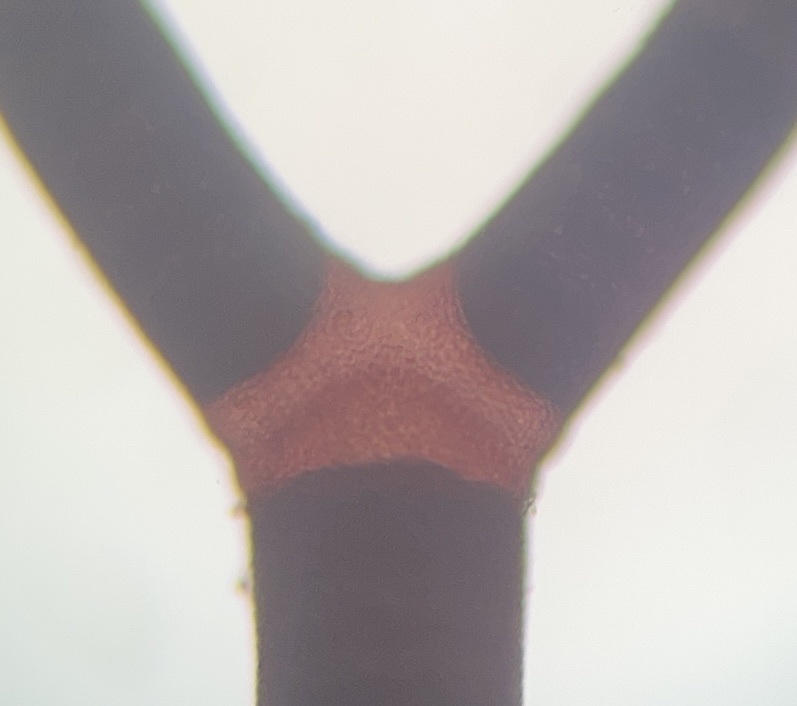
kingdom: Plantae
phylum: Rhodophyta
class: Florideophyceae
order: Corallinales
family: Lithophyllaceae
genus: Amphiroa
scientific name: Amphiroa fragilissima
